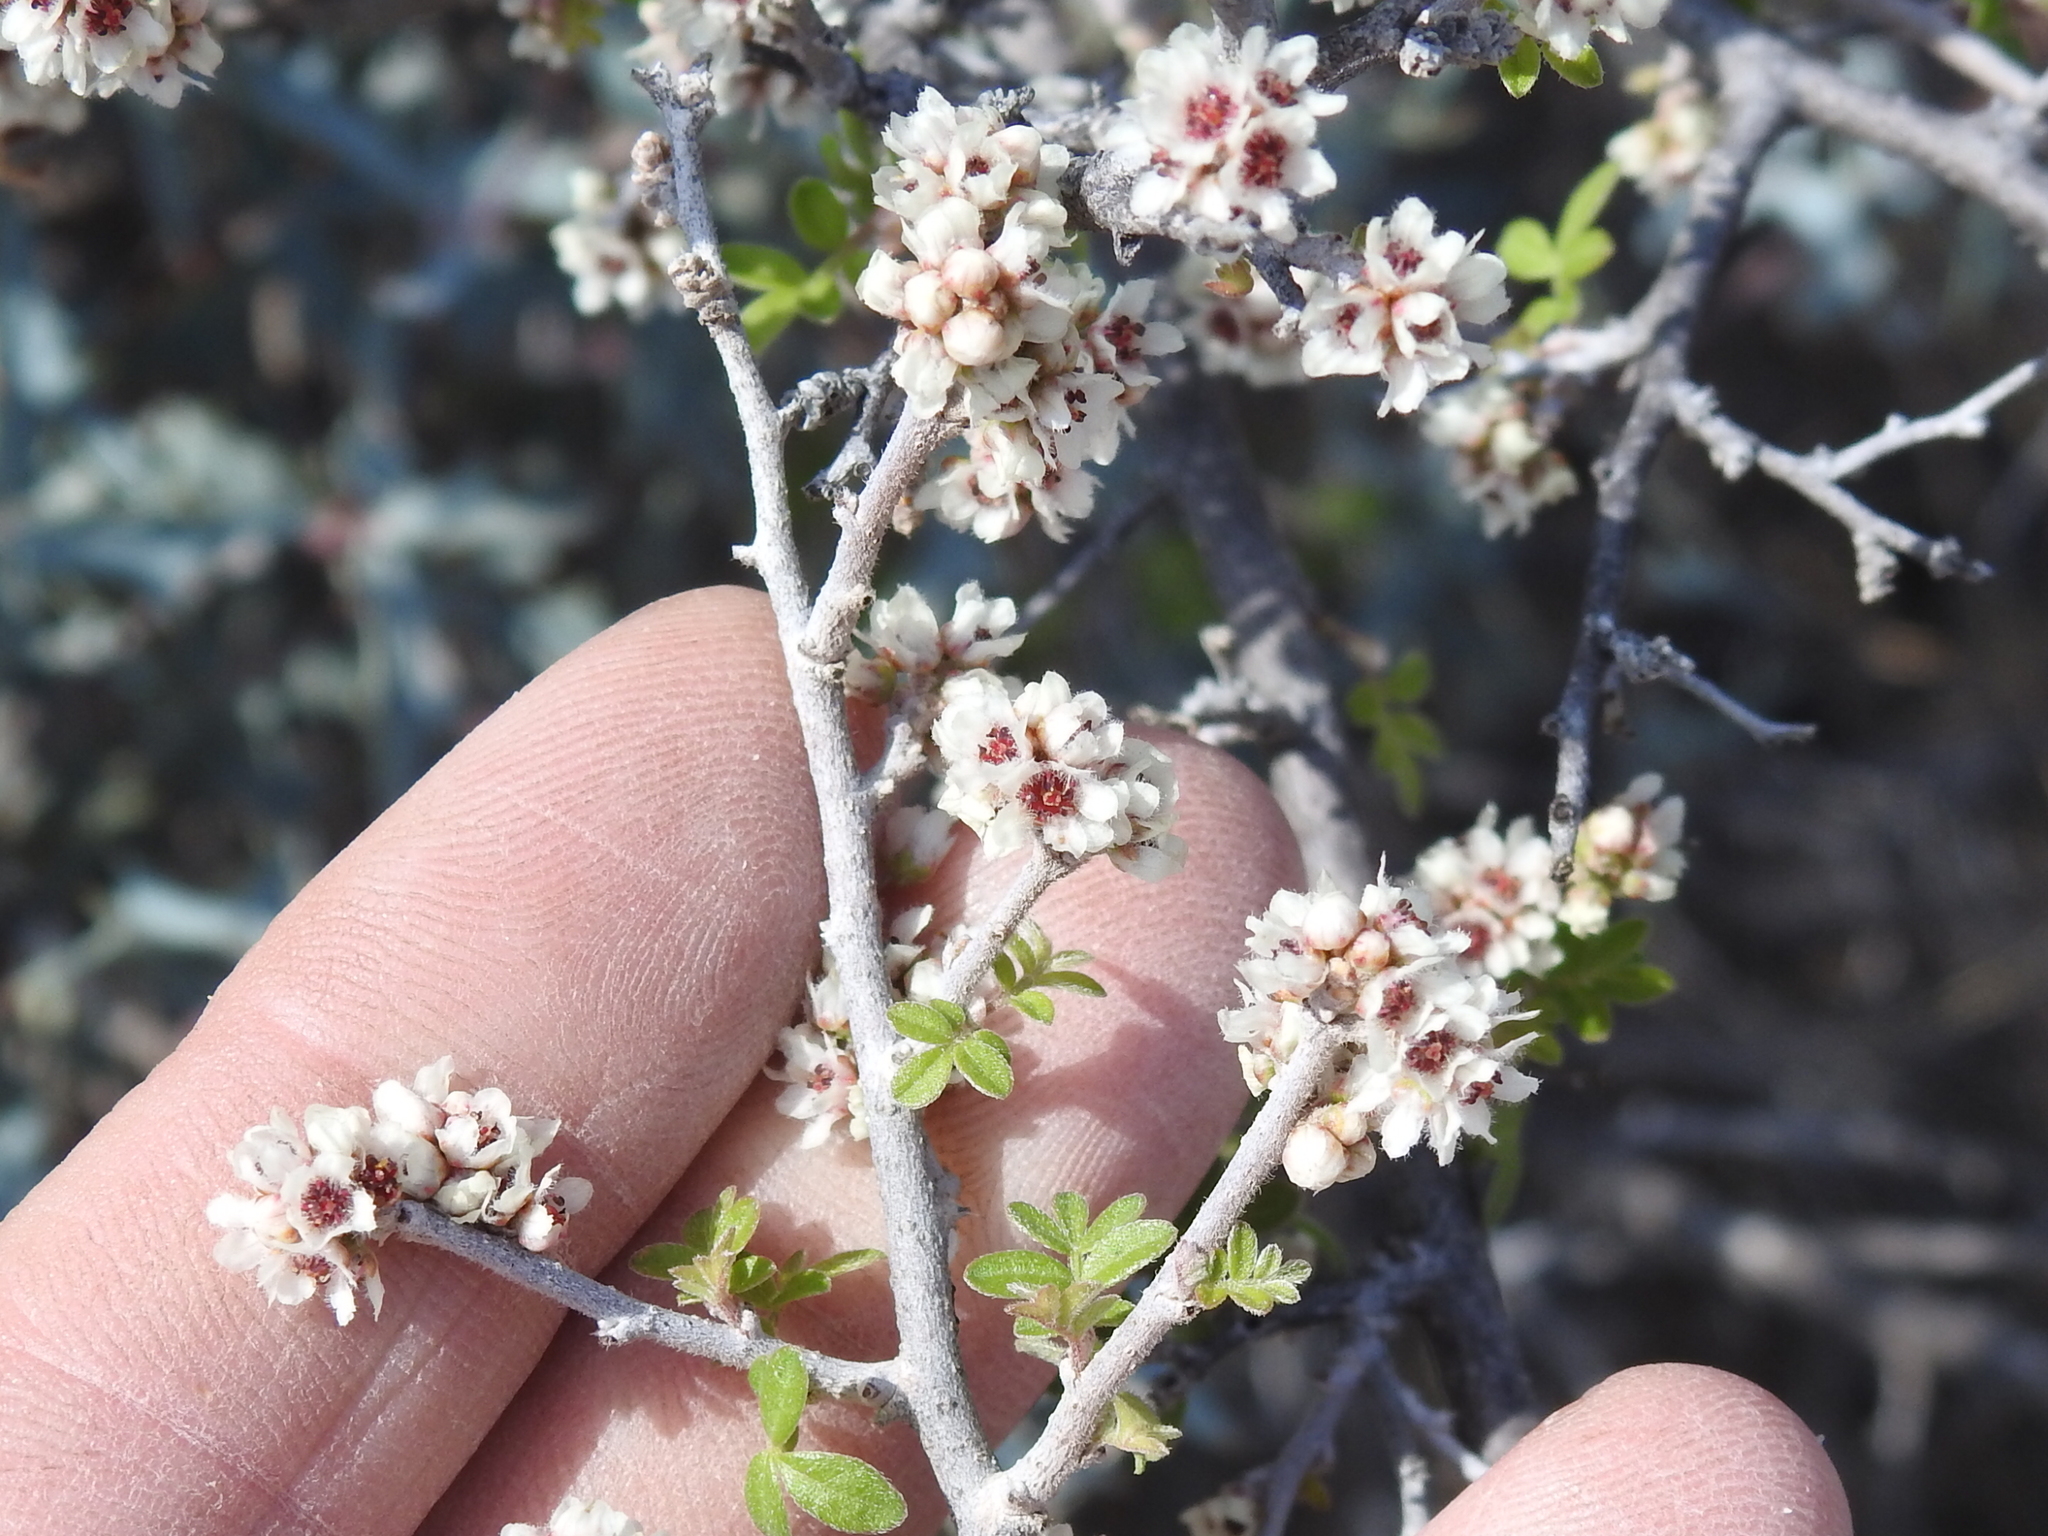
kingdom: Plantae
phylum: Tracheophyta
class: Magnoliopsida
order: Sapindales
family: Anacardiaceae
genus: Rhus
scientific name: Rhus microphylla
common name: Desert sumac
